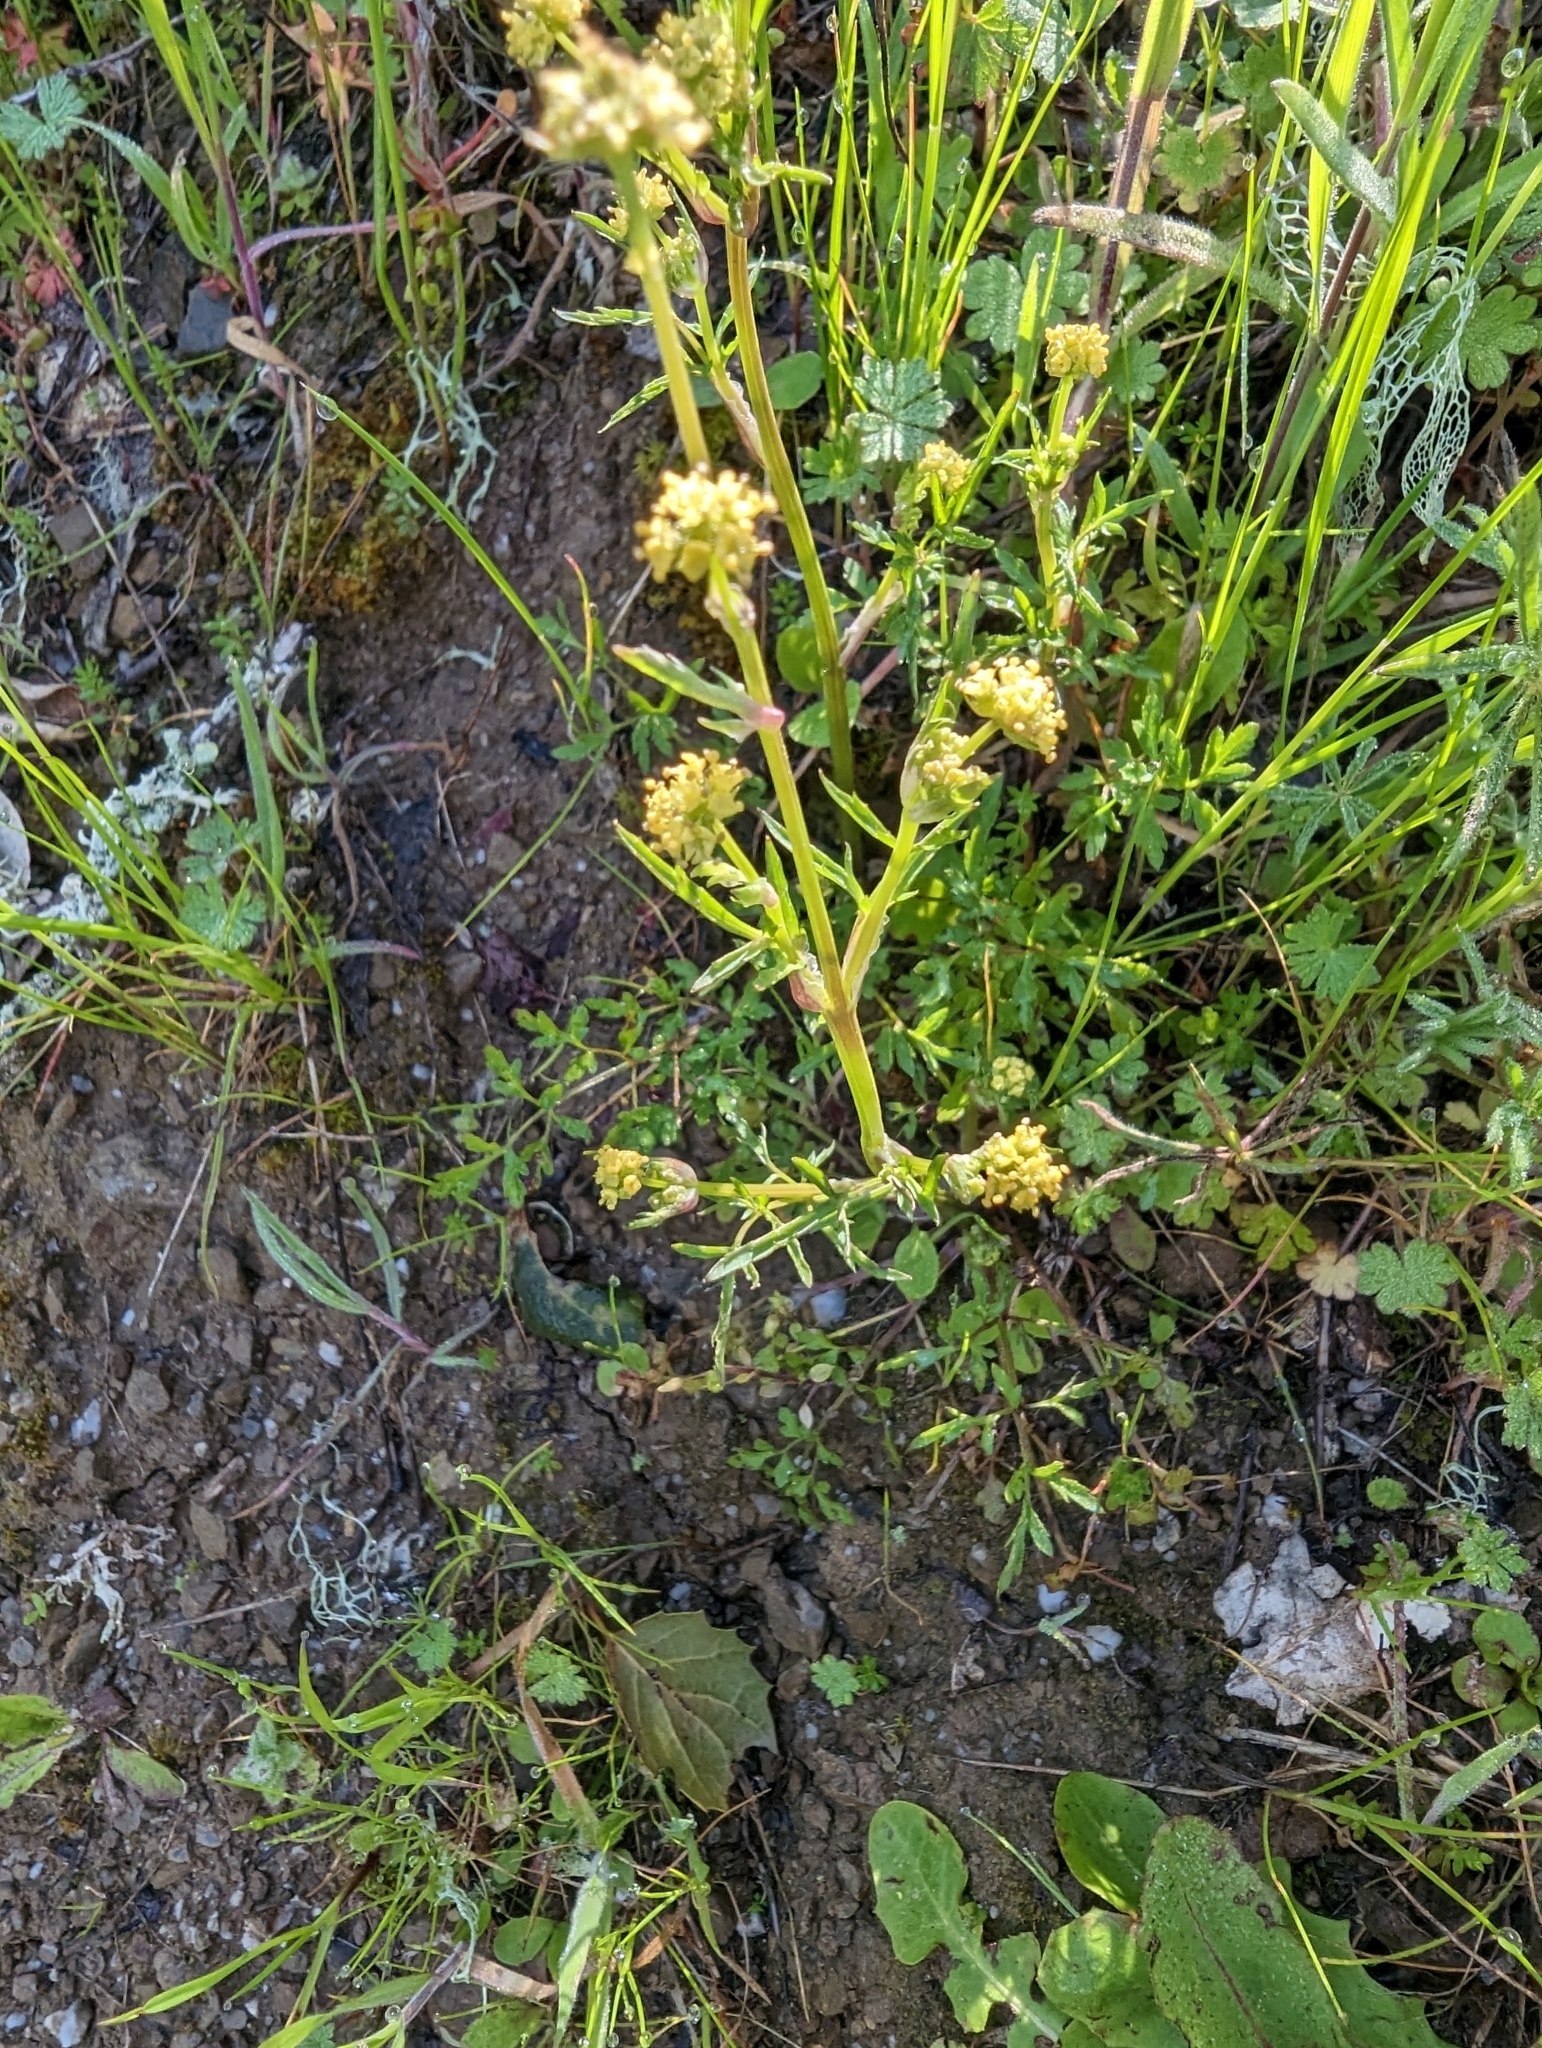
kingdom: Plantae
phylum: Tracheophyta
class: Magnoliopsida
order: Apiales
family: Apiaceae
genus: Sanicula
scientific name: Sanicula bipinnata
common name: Poison sanicle
